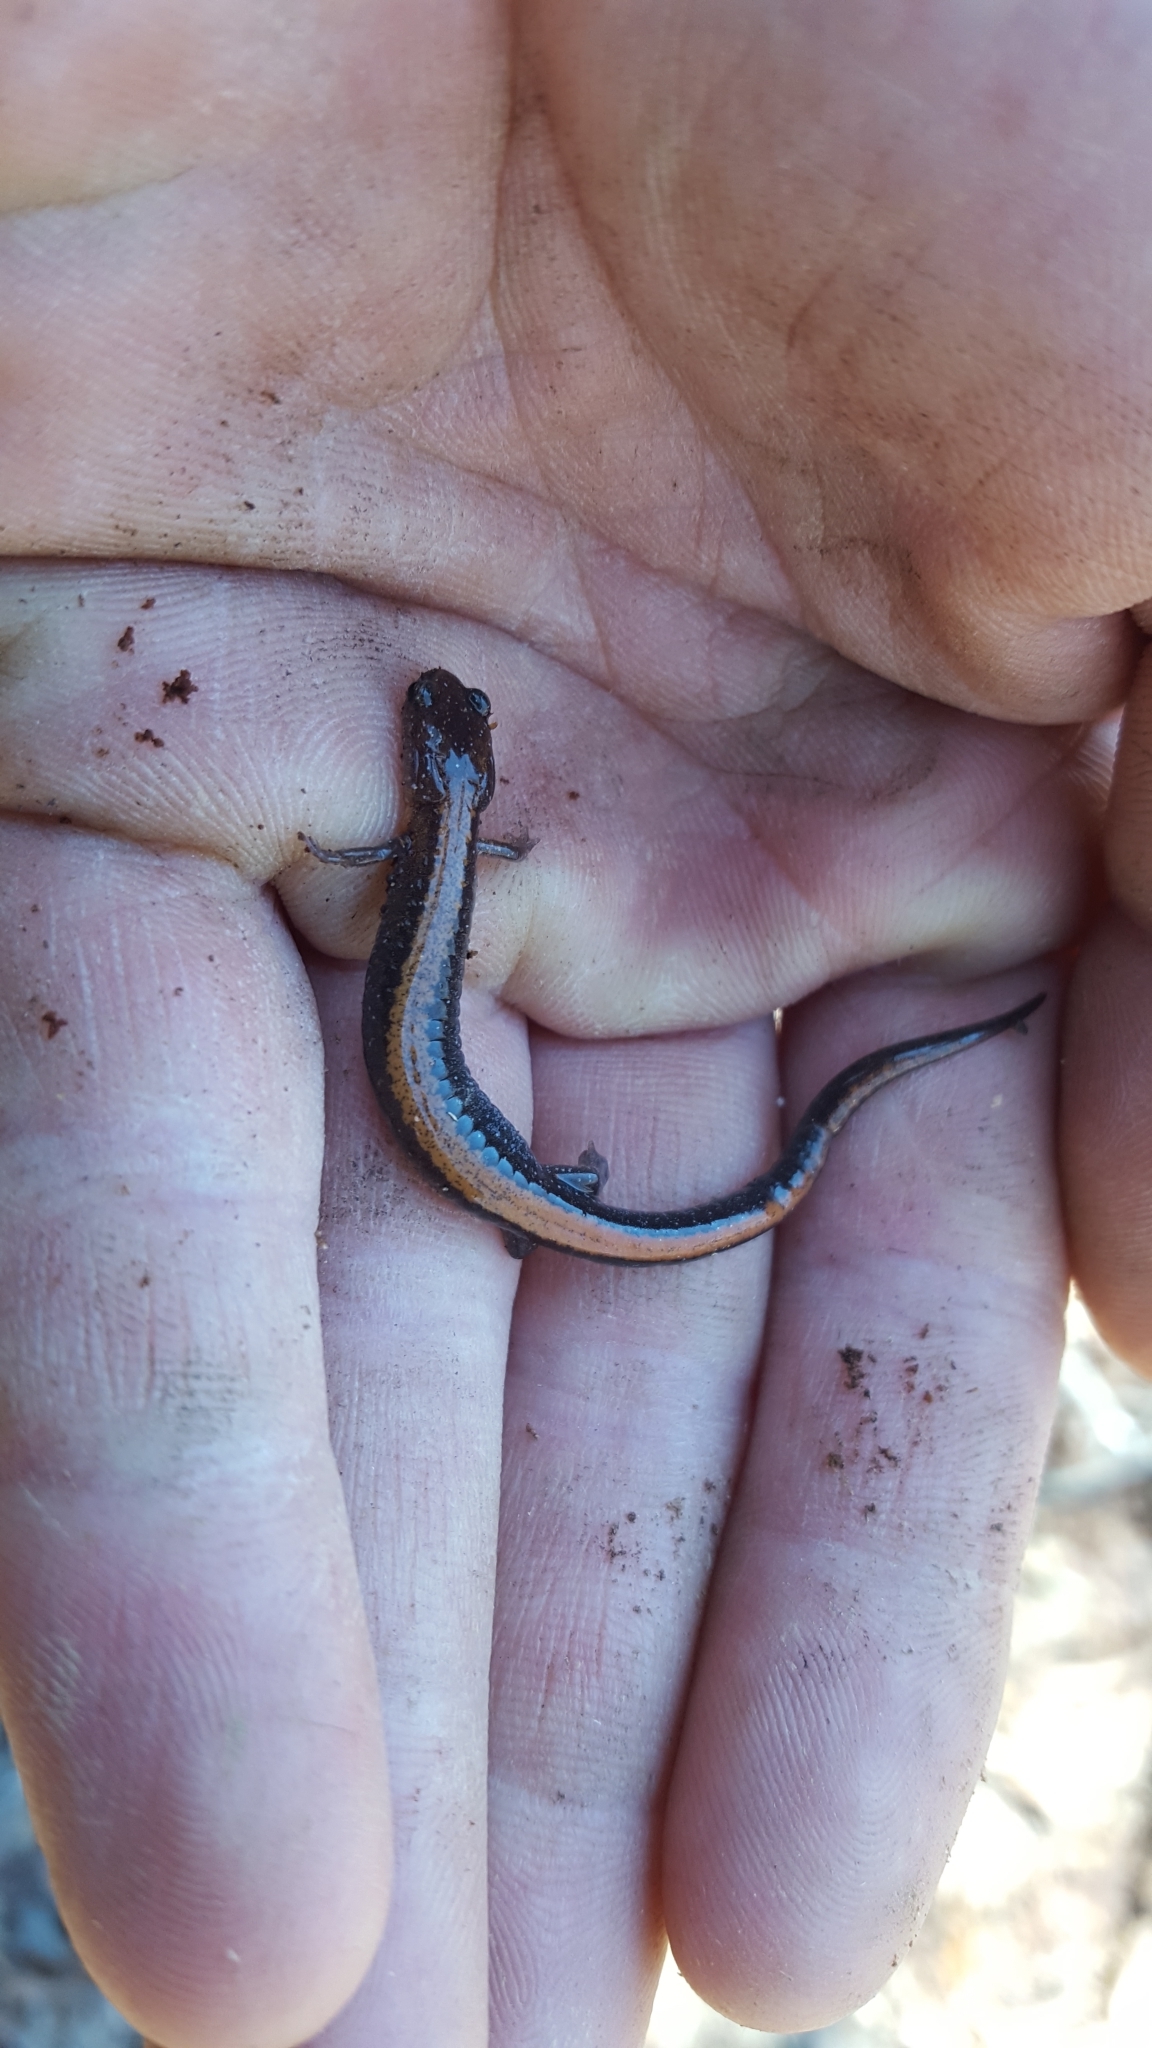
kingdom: Animalia
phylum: Chordata
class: Amphibia
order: Caudata
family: Plethodontidae
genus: Plethodon
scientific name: Plethodon serratus
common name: Southern red-backed salamander
